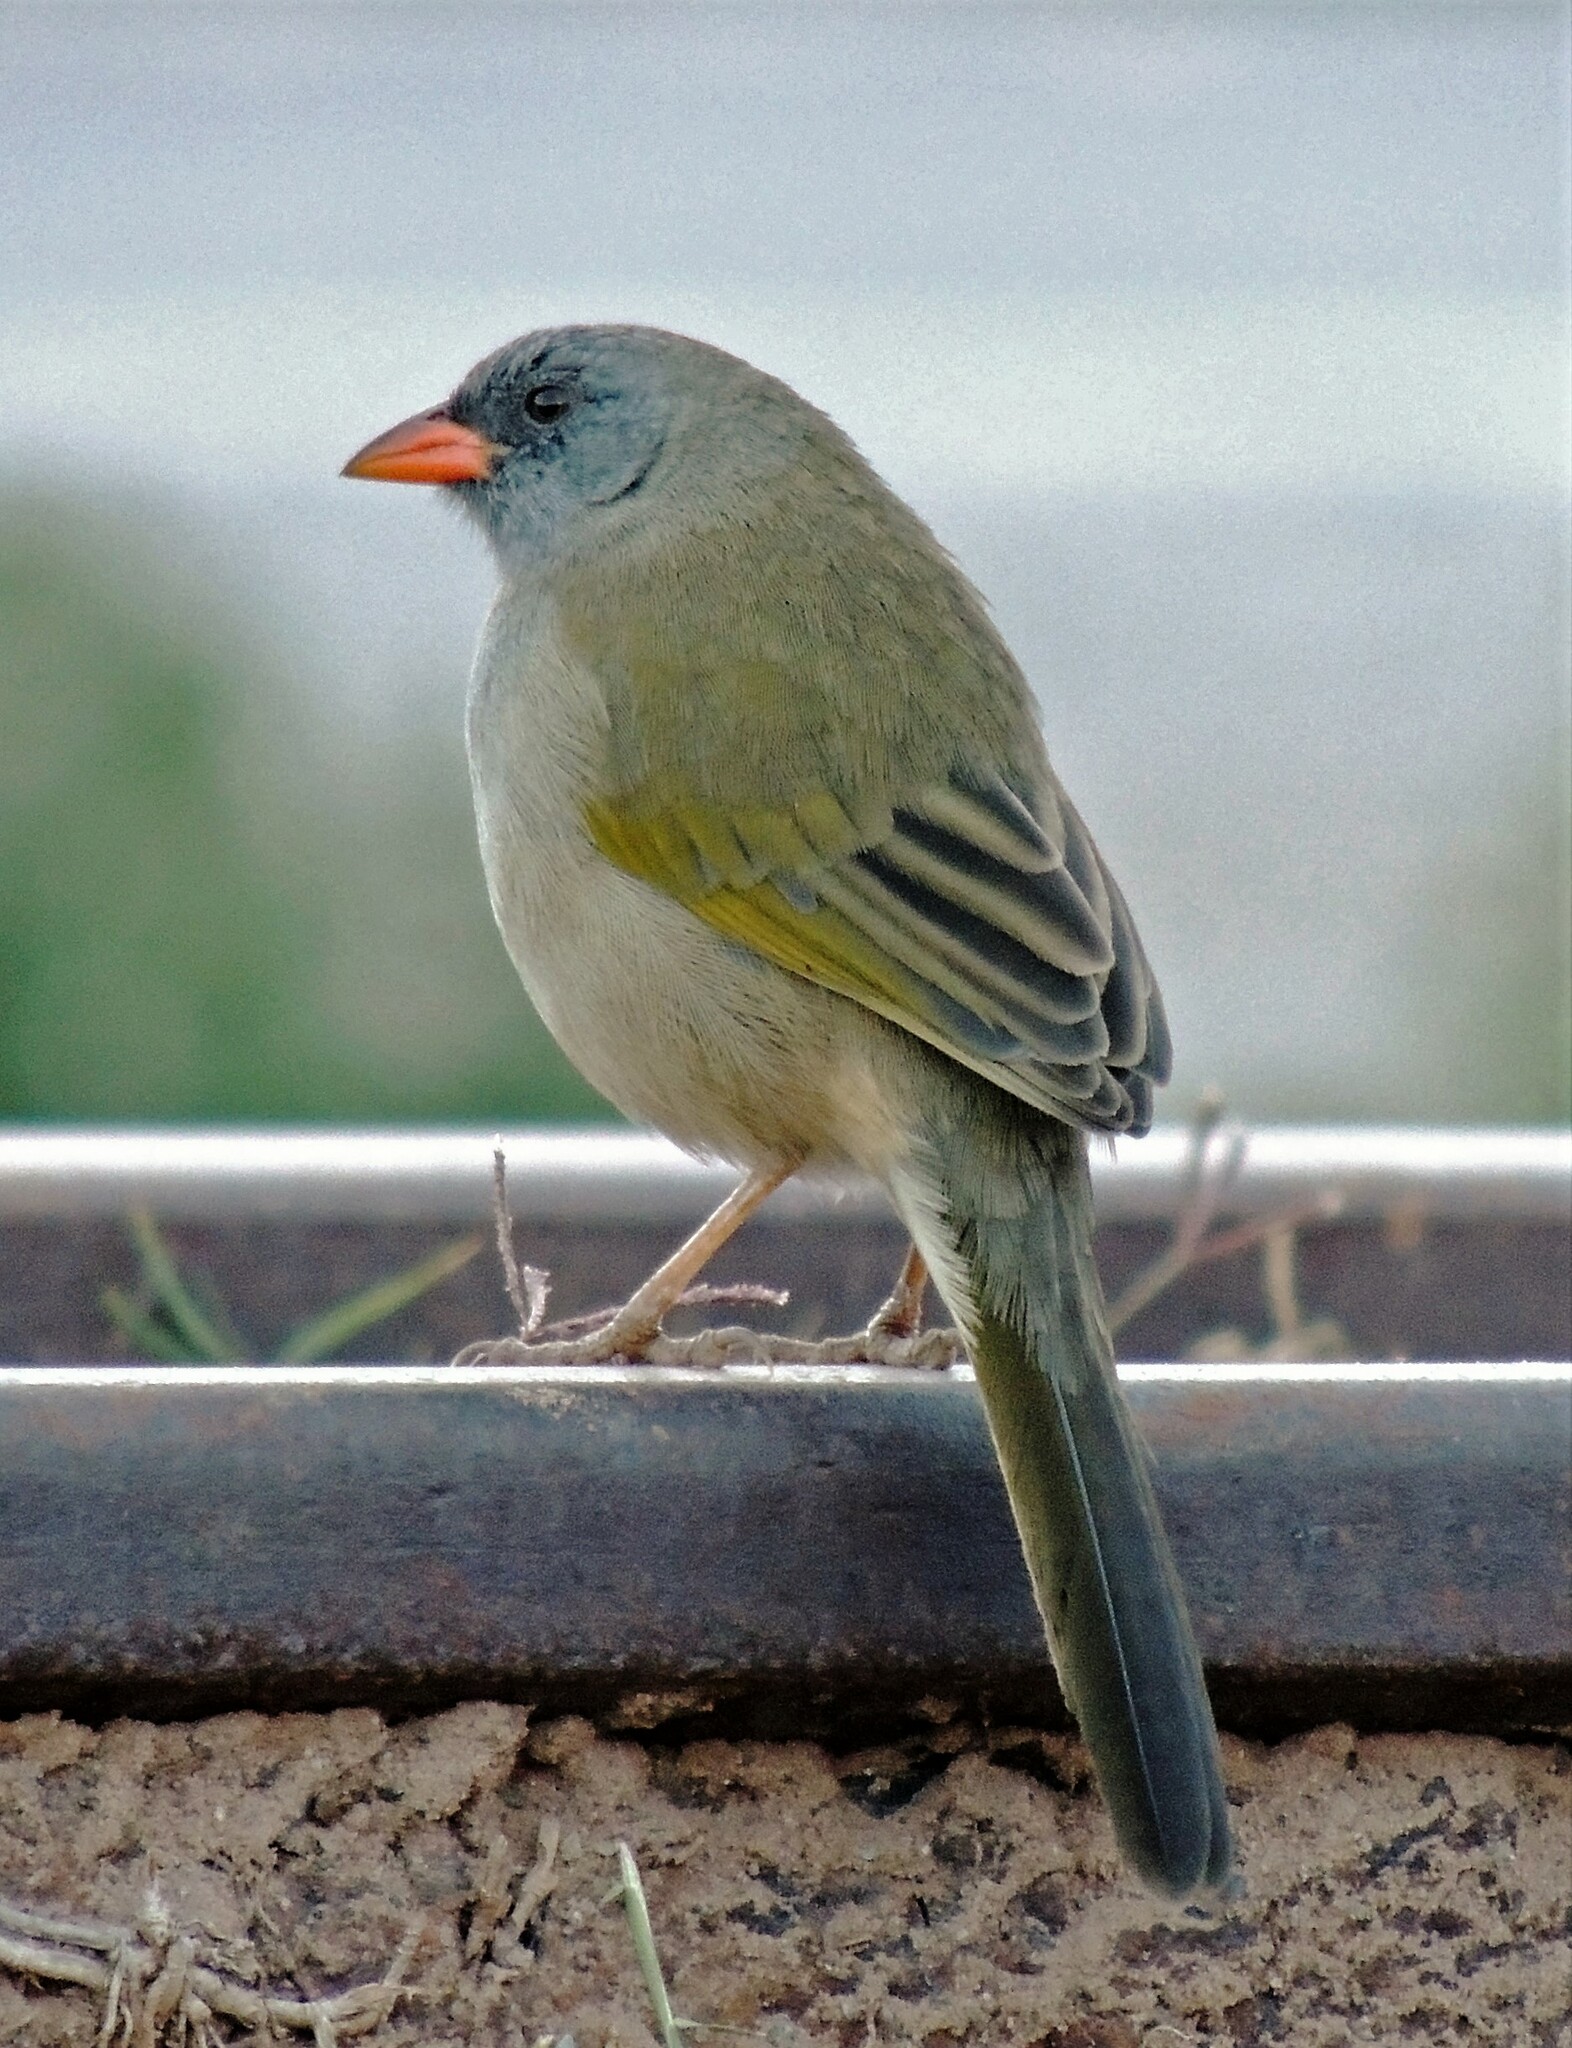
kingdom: Animalia
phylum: Chordata
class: Aves
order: Passeriformes
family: Thraupidae
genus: Embernagra
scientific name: Embernagra platensis
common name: Pampa finch
